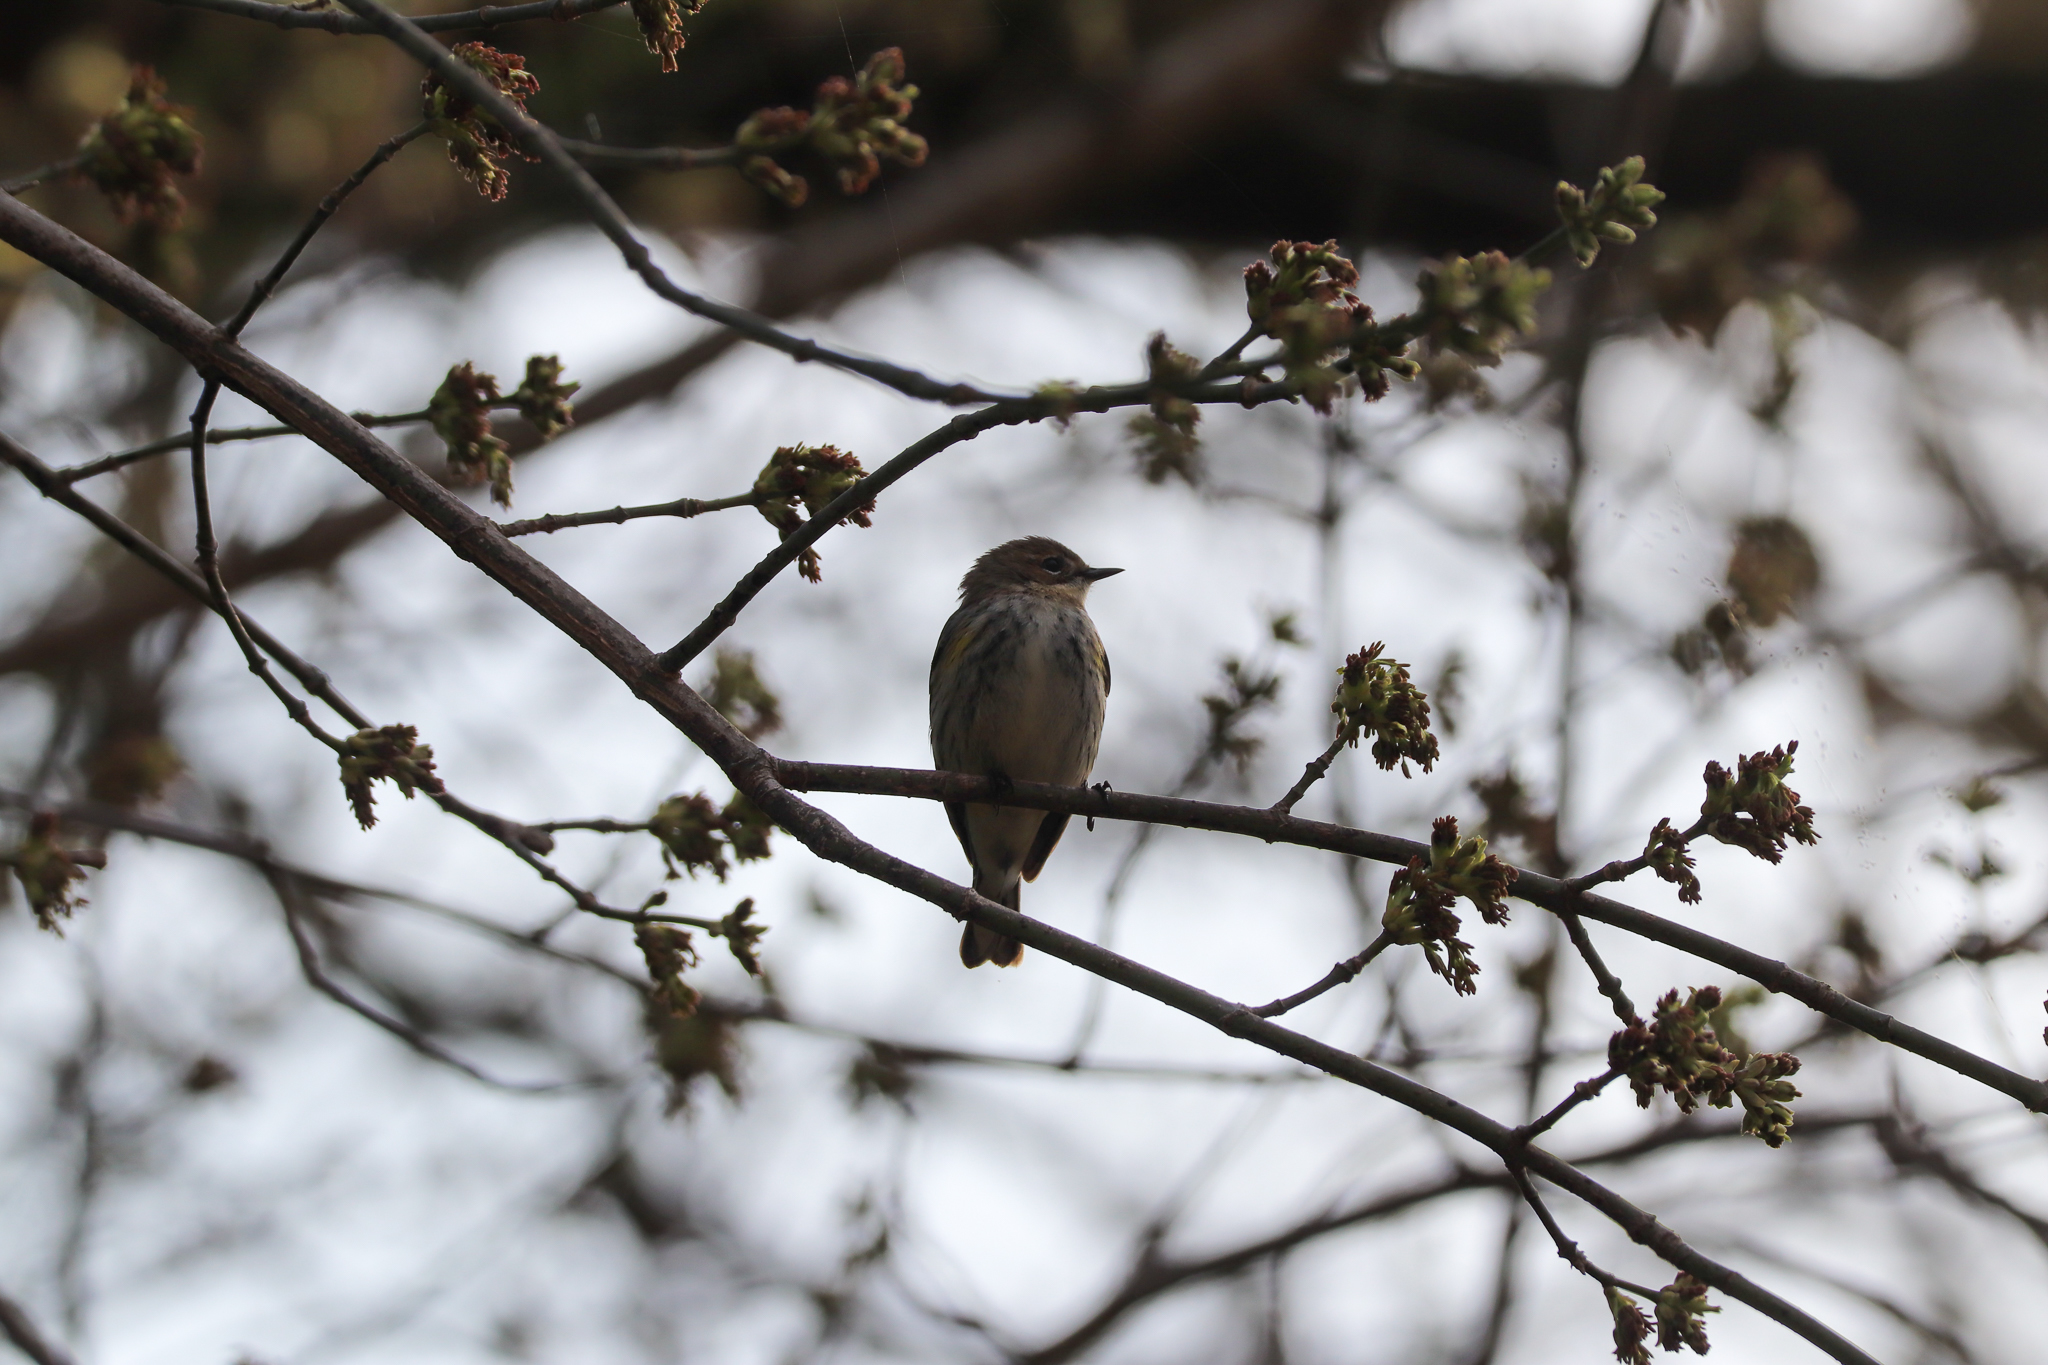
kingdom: Animalia
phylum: Chordata
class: Aves
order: Passeriformes
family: Parulidae
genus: Setophaga
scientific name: Setophaga coronata
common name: Myrtle warbler
